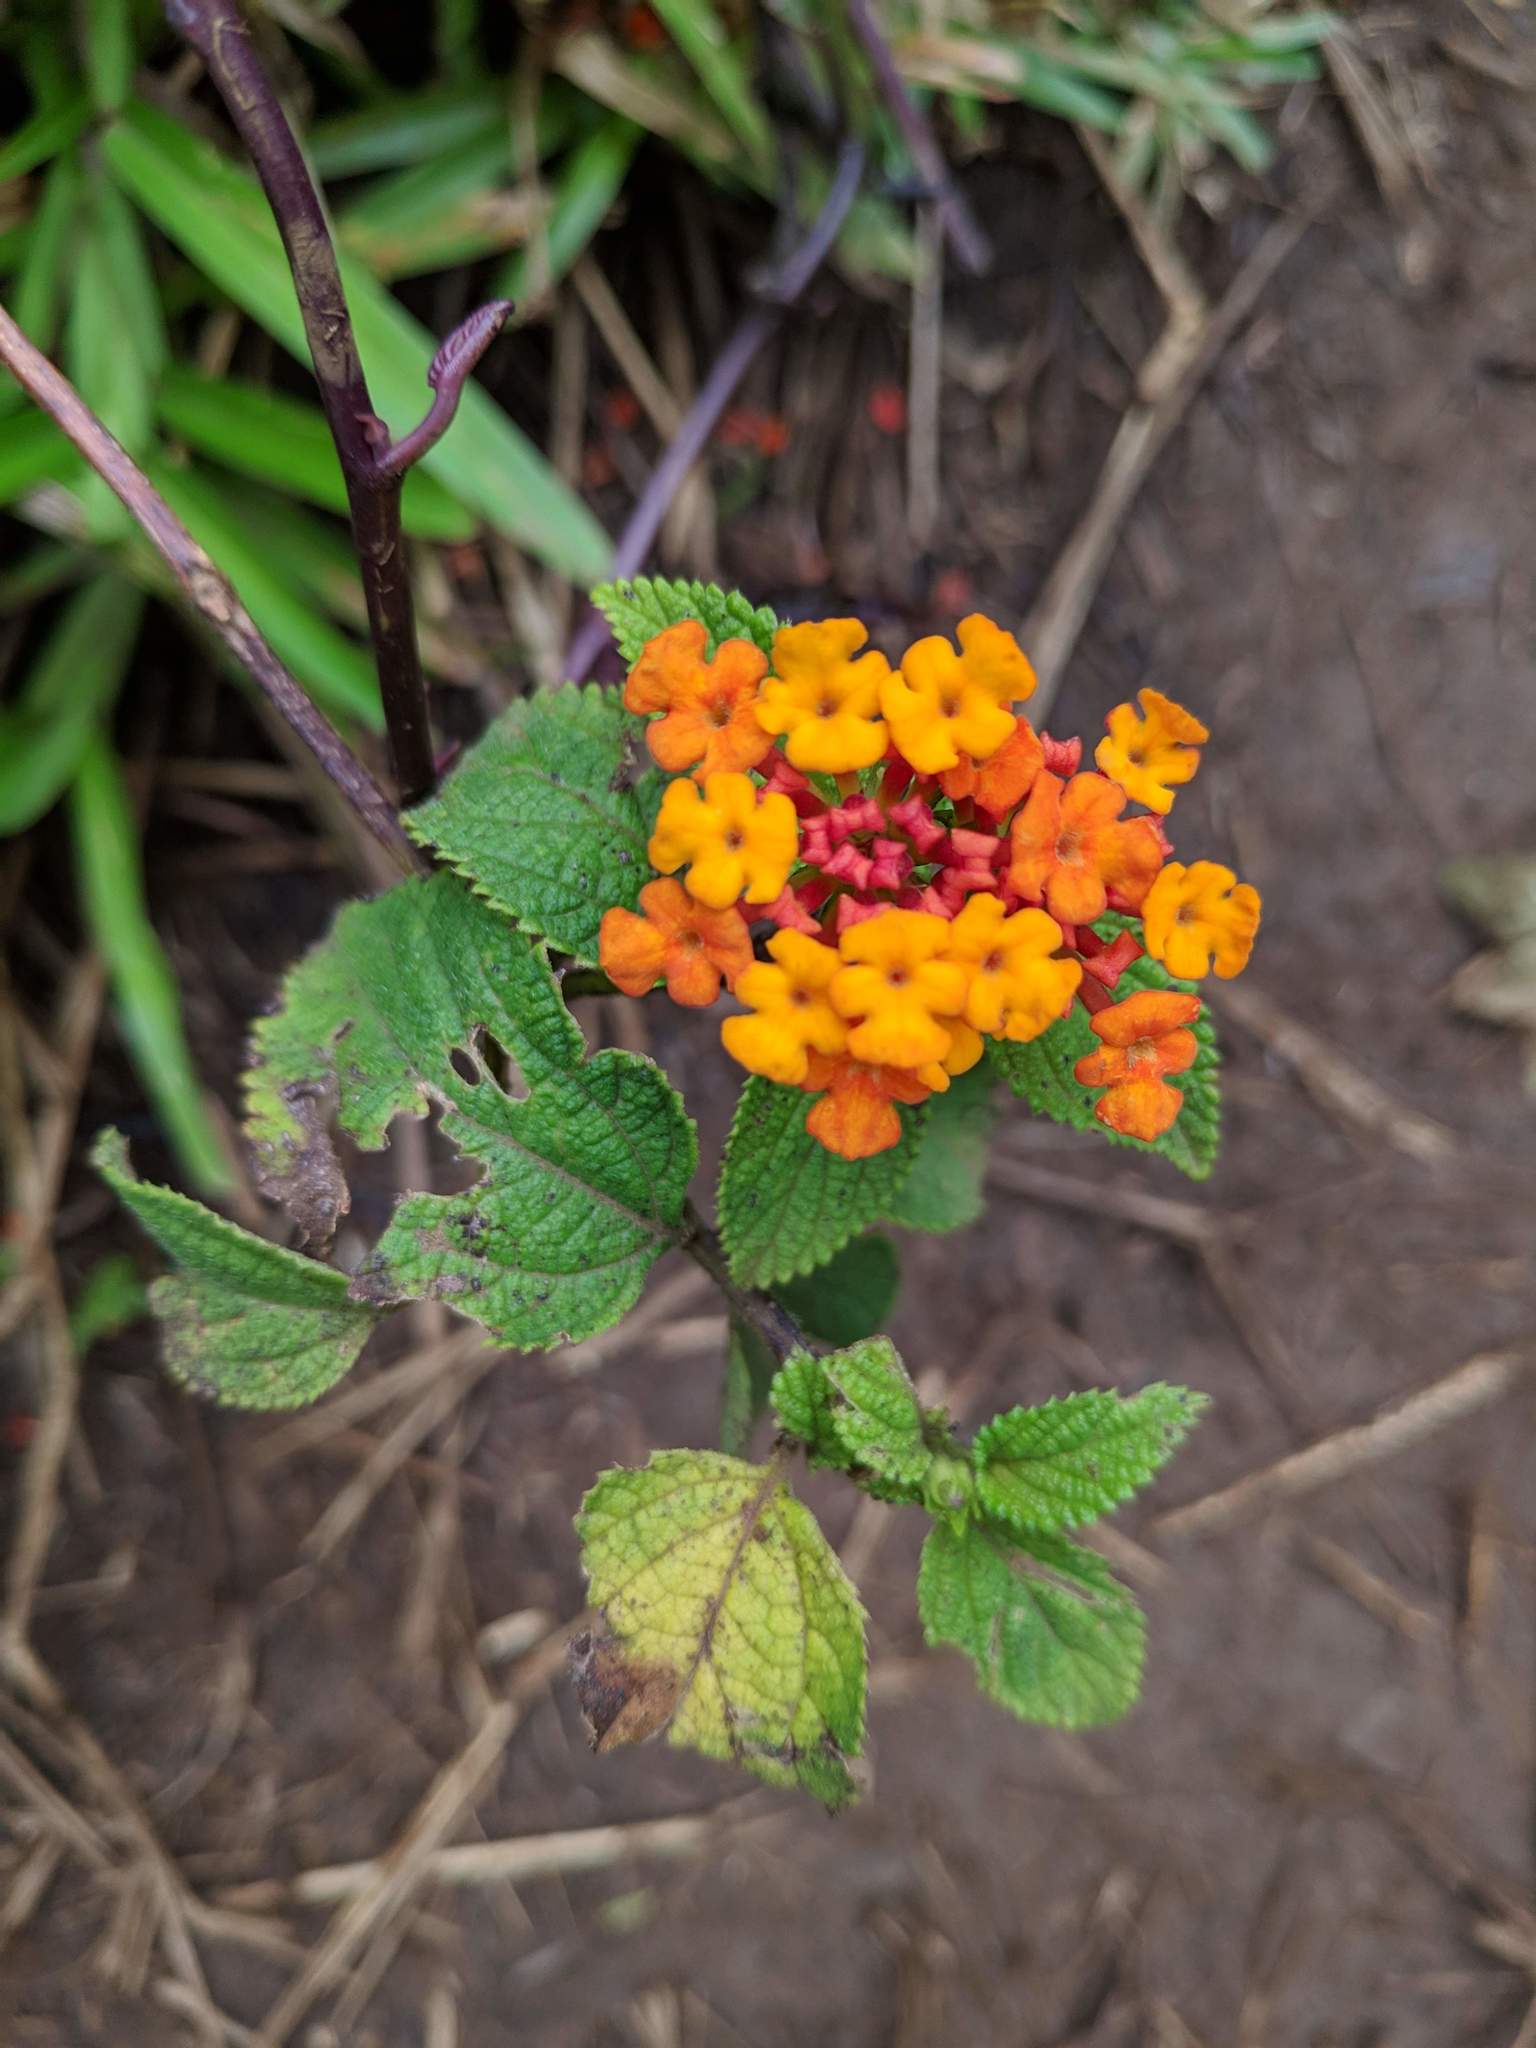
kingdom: Plantae
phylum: Tracheophyta
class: Magnoliopsida
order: Lamiales
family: Verbenaceae
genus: Lantana
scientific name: Lantana camara
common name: Lantana
